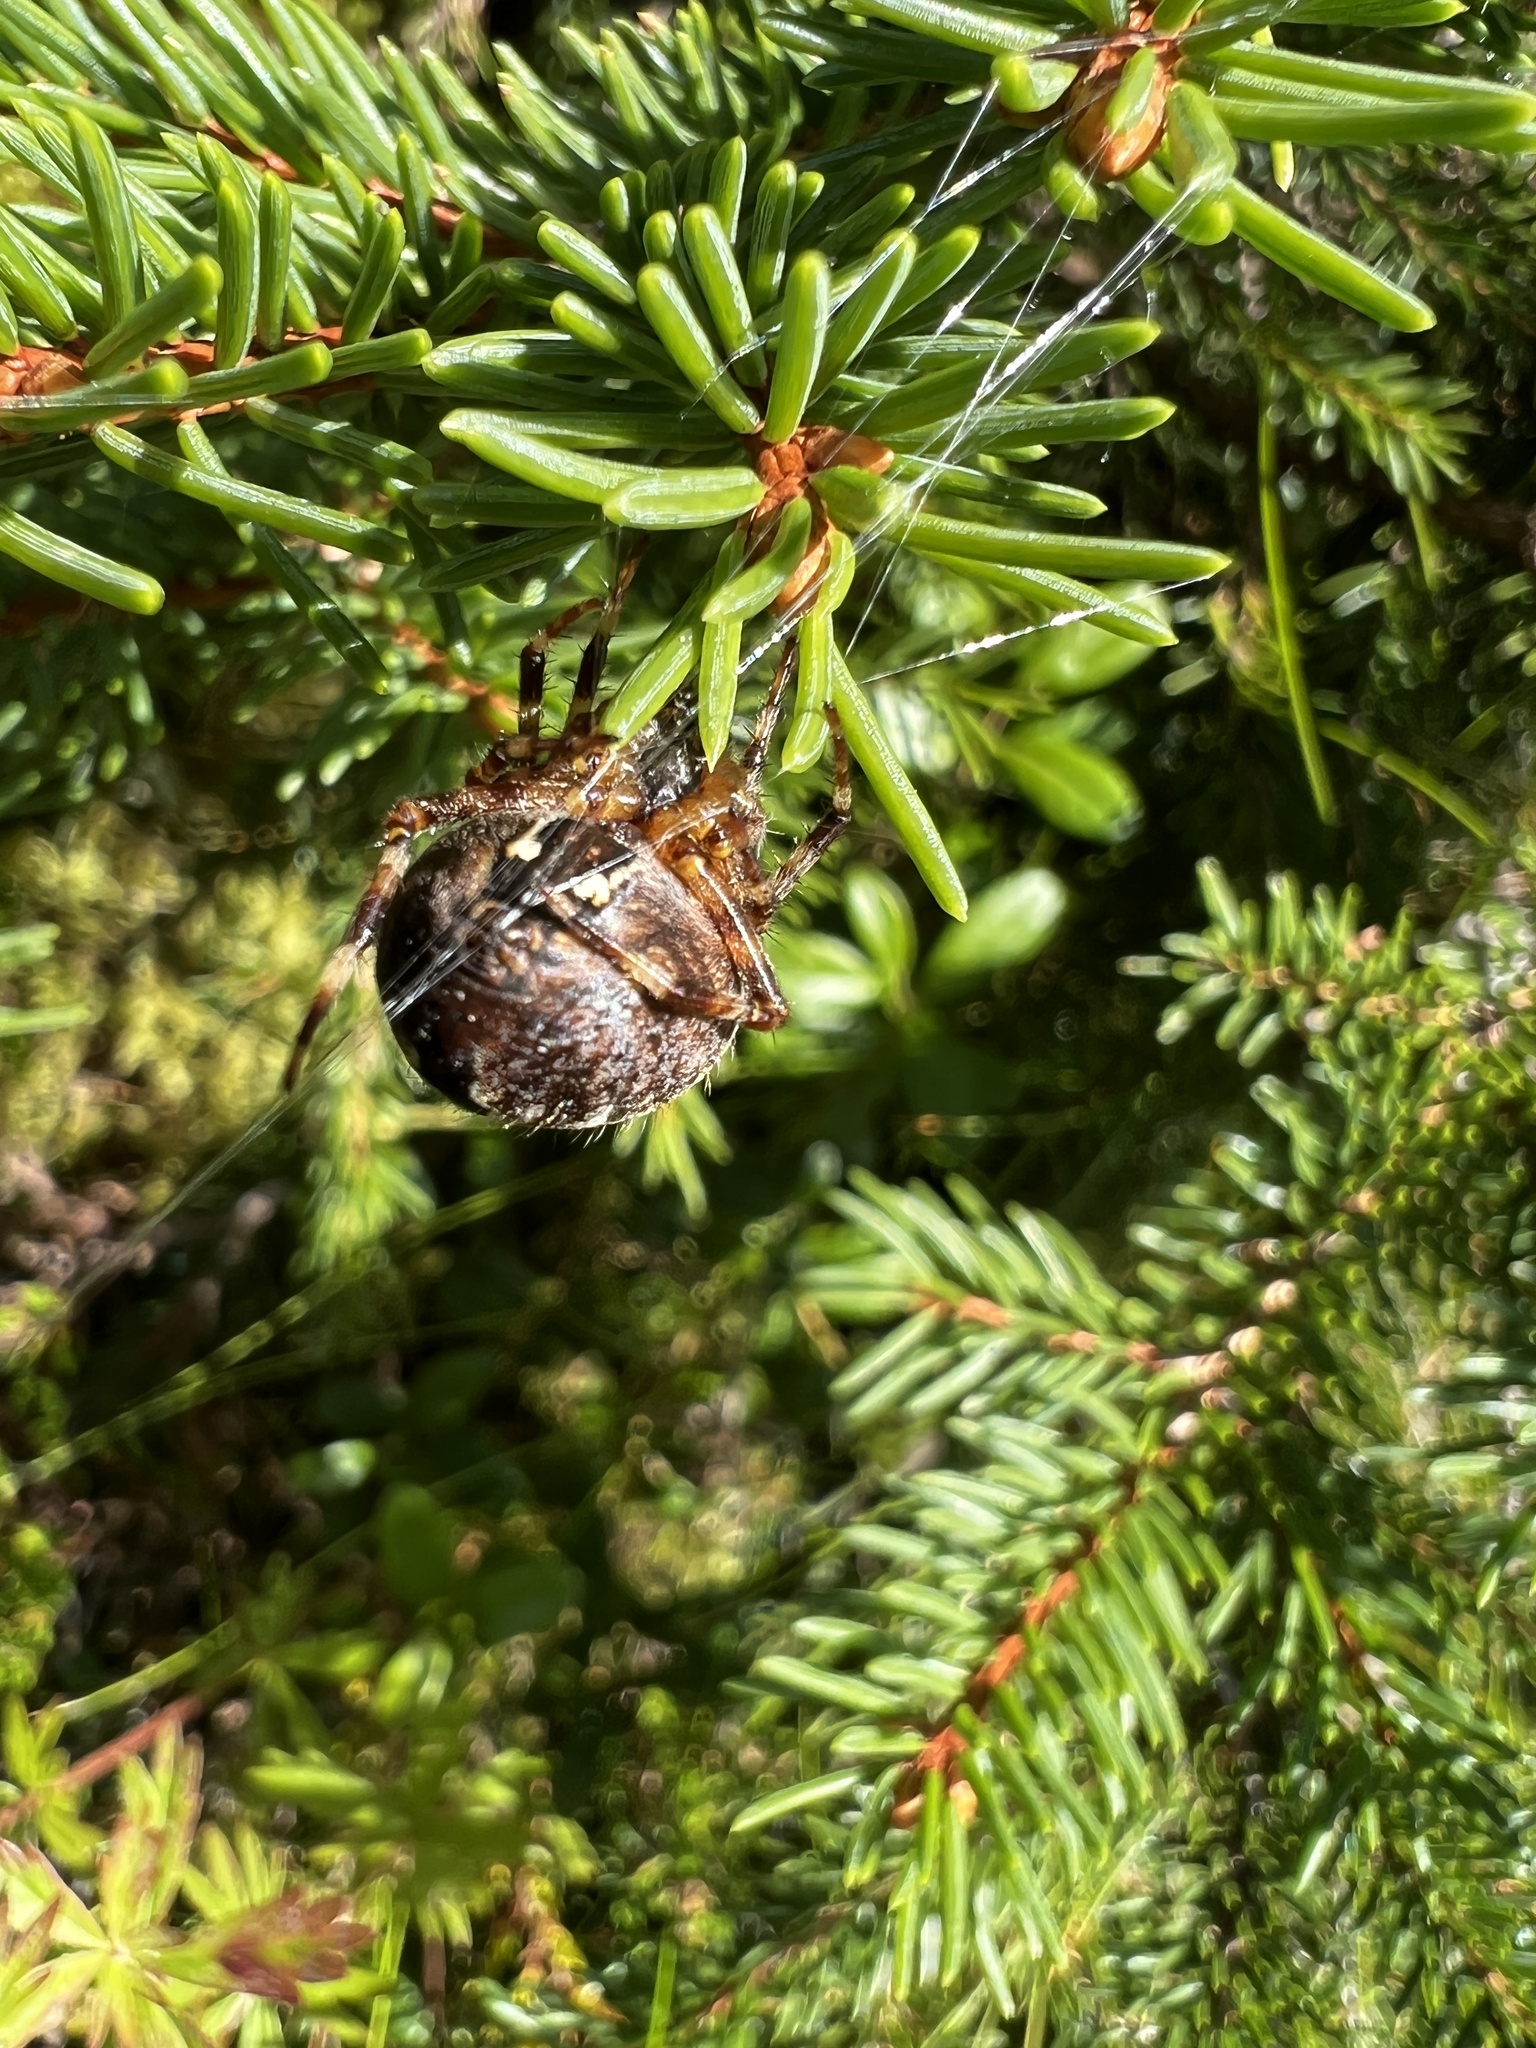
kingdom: Animalia
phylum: Arthropoda
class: Arachnida
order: Araneae
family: Araneidae
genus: Araneus
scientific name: Araneus diadematus
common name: Cross orbweaver
